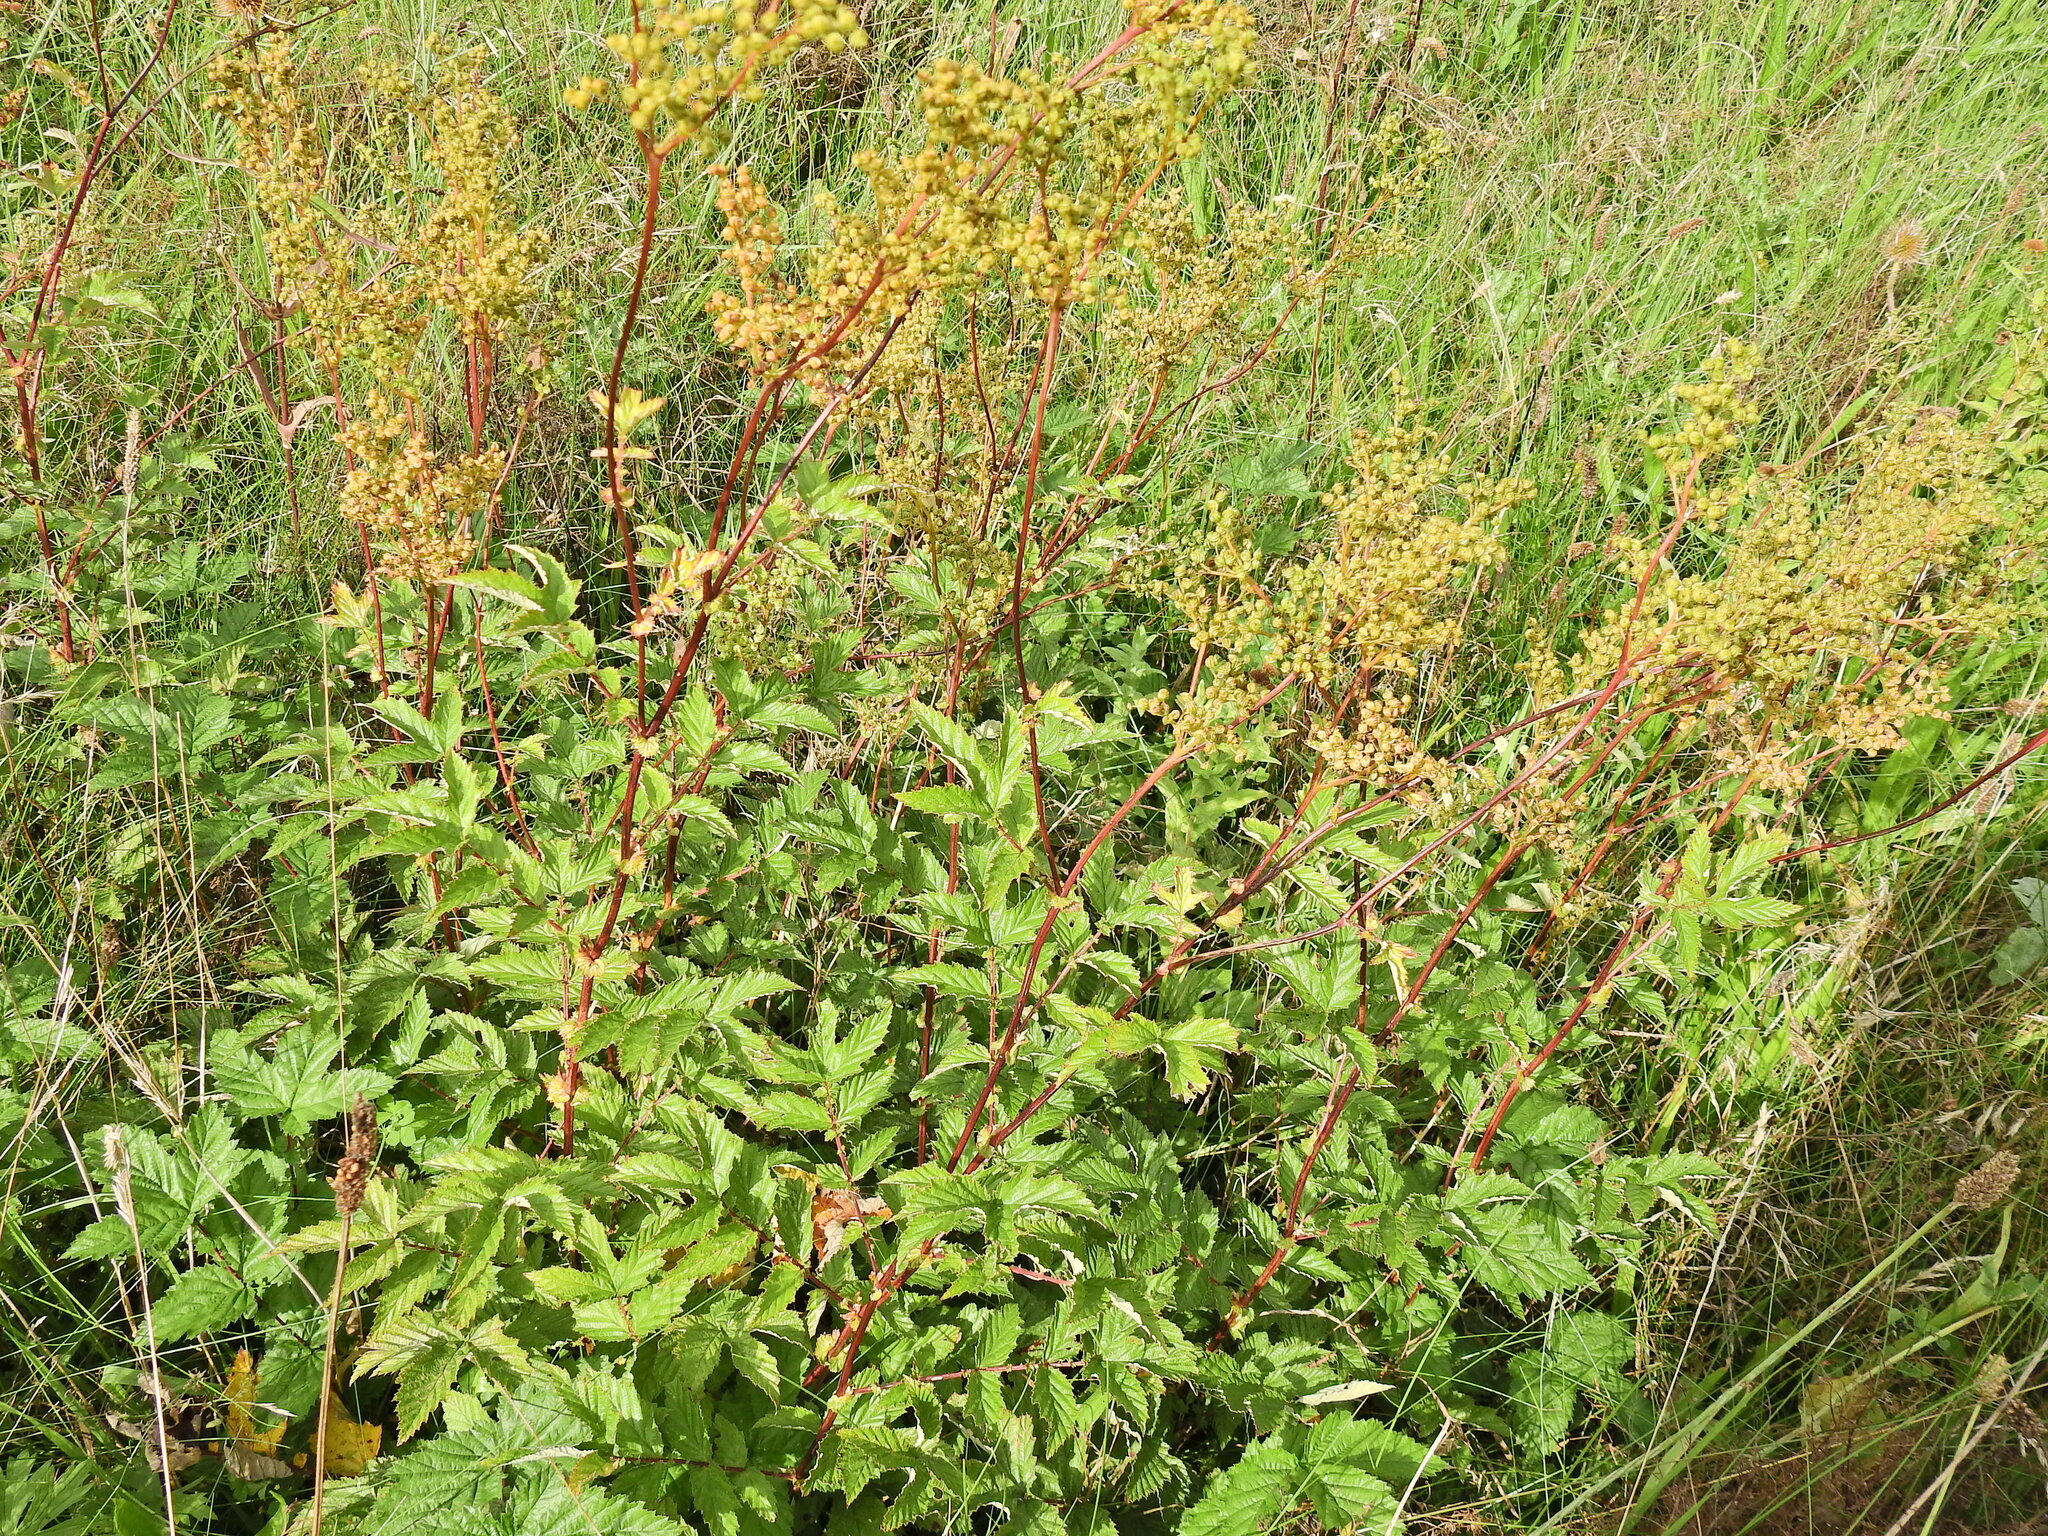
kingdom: Plantae
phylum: Tracheophyta
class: Magnoliopsida
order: Rosales
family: Rosaceae
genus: Filipendula
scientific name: Filipendula ulmaria
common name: Meadowsweet
